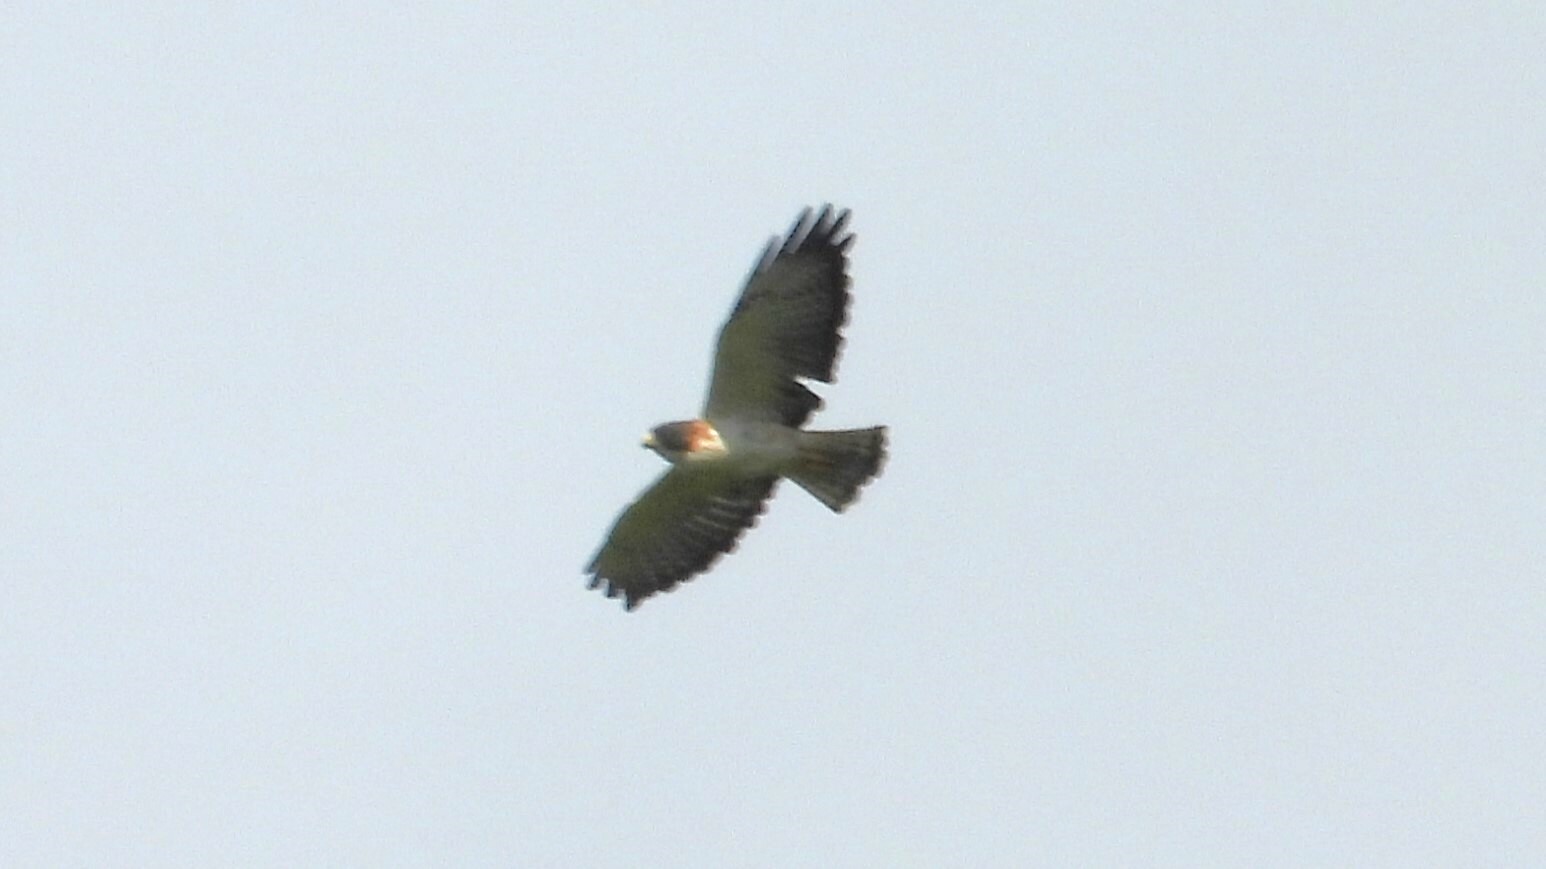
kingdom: Animalia
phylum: Chordata
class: Aves
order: Accipitriformes
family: Accipitridae
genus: Buteo
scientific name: Buteo brachyurus
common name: Short-tailed hawk
